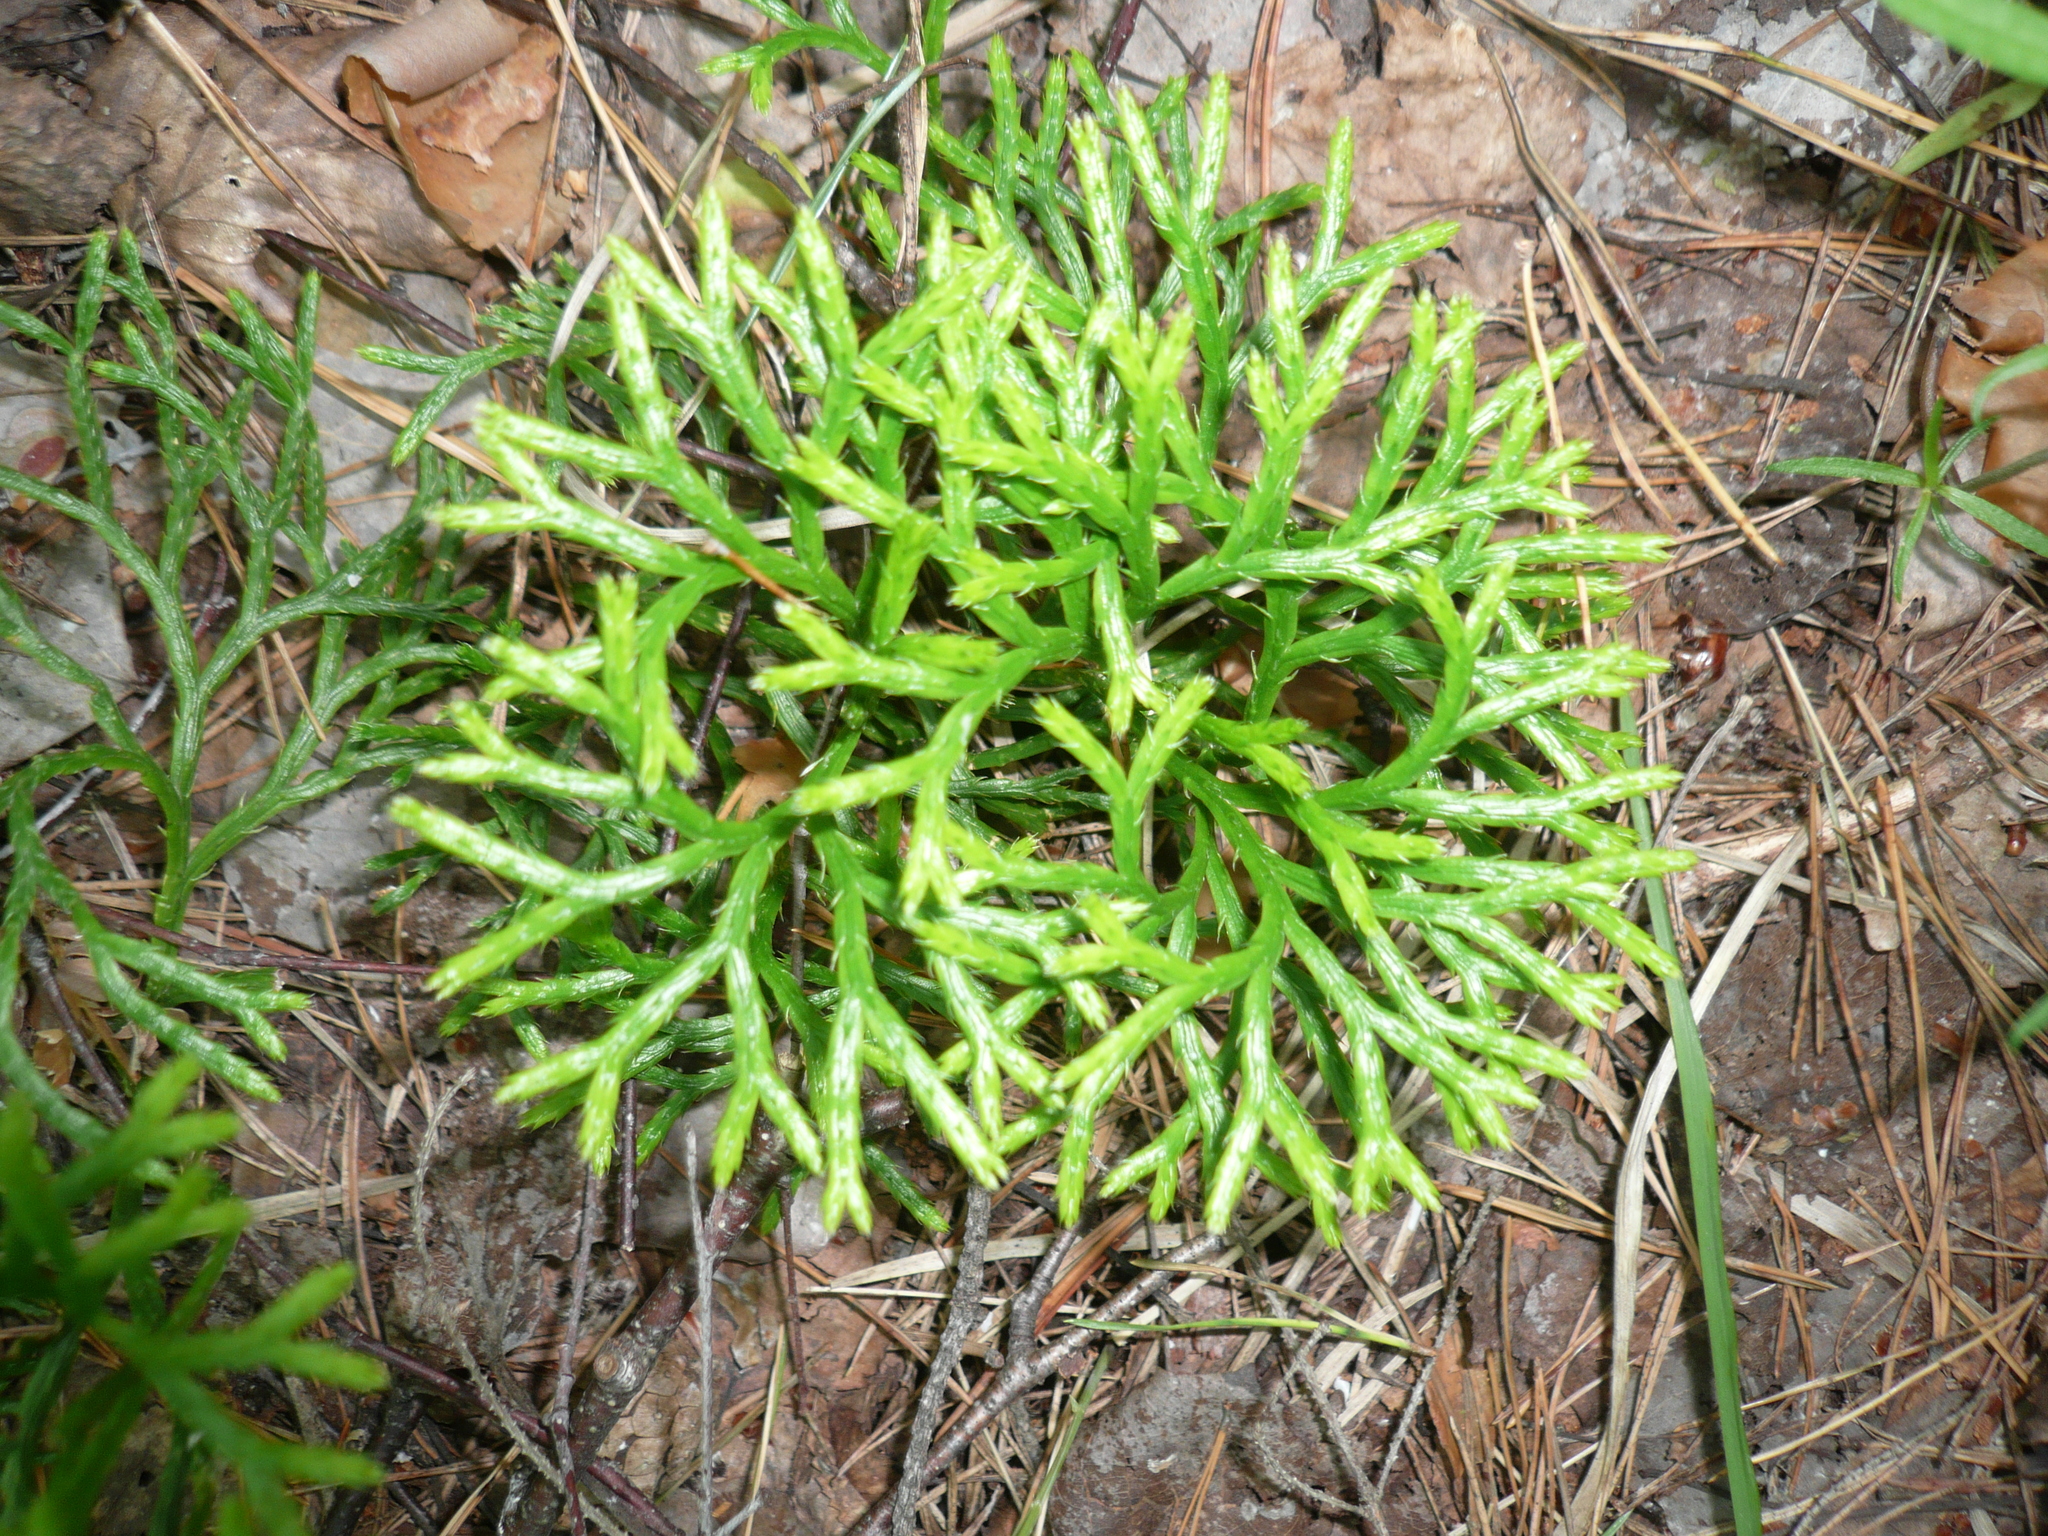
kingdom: Plantae
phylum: Tracheophyta
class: Lycopodiopsida
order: Lycopodiales
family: Lycopodiaceae
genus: Diphasiastrum
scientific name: Diphasiastrum complanatum
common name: Northern running-pine
